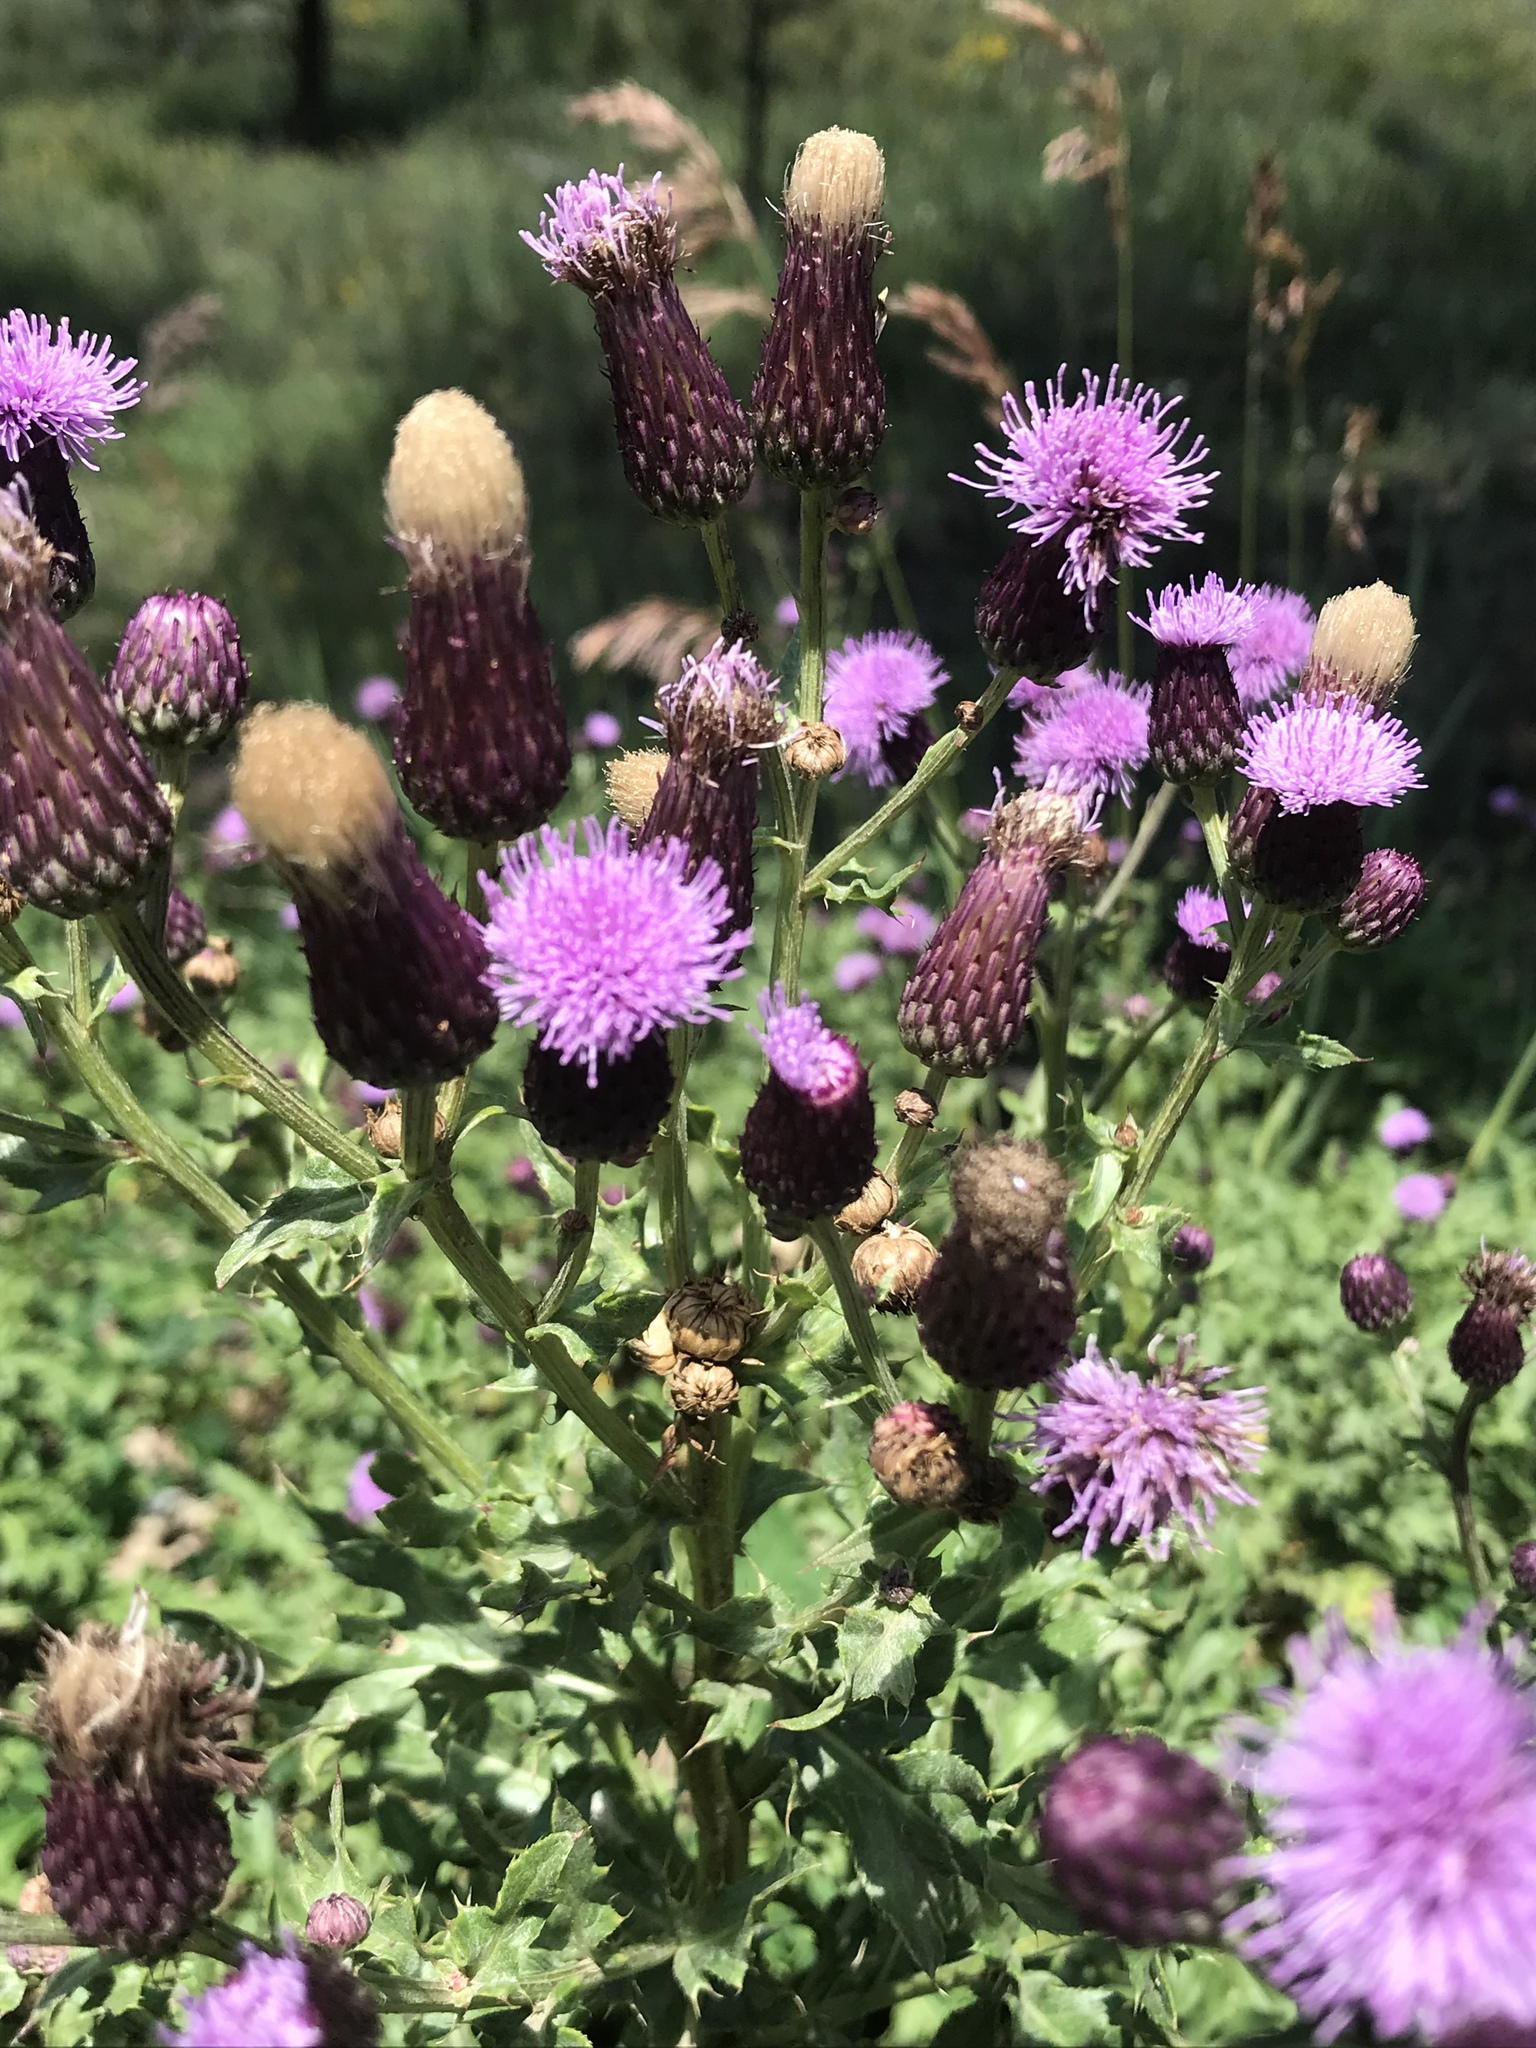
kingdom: Plantae
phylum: Tracheophyta
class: Magnoliopsida
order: Asterales
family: Asteraceae
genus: Cirsium
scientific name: Cirsium arvense
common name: Creeping thistle
